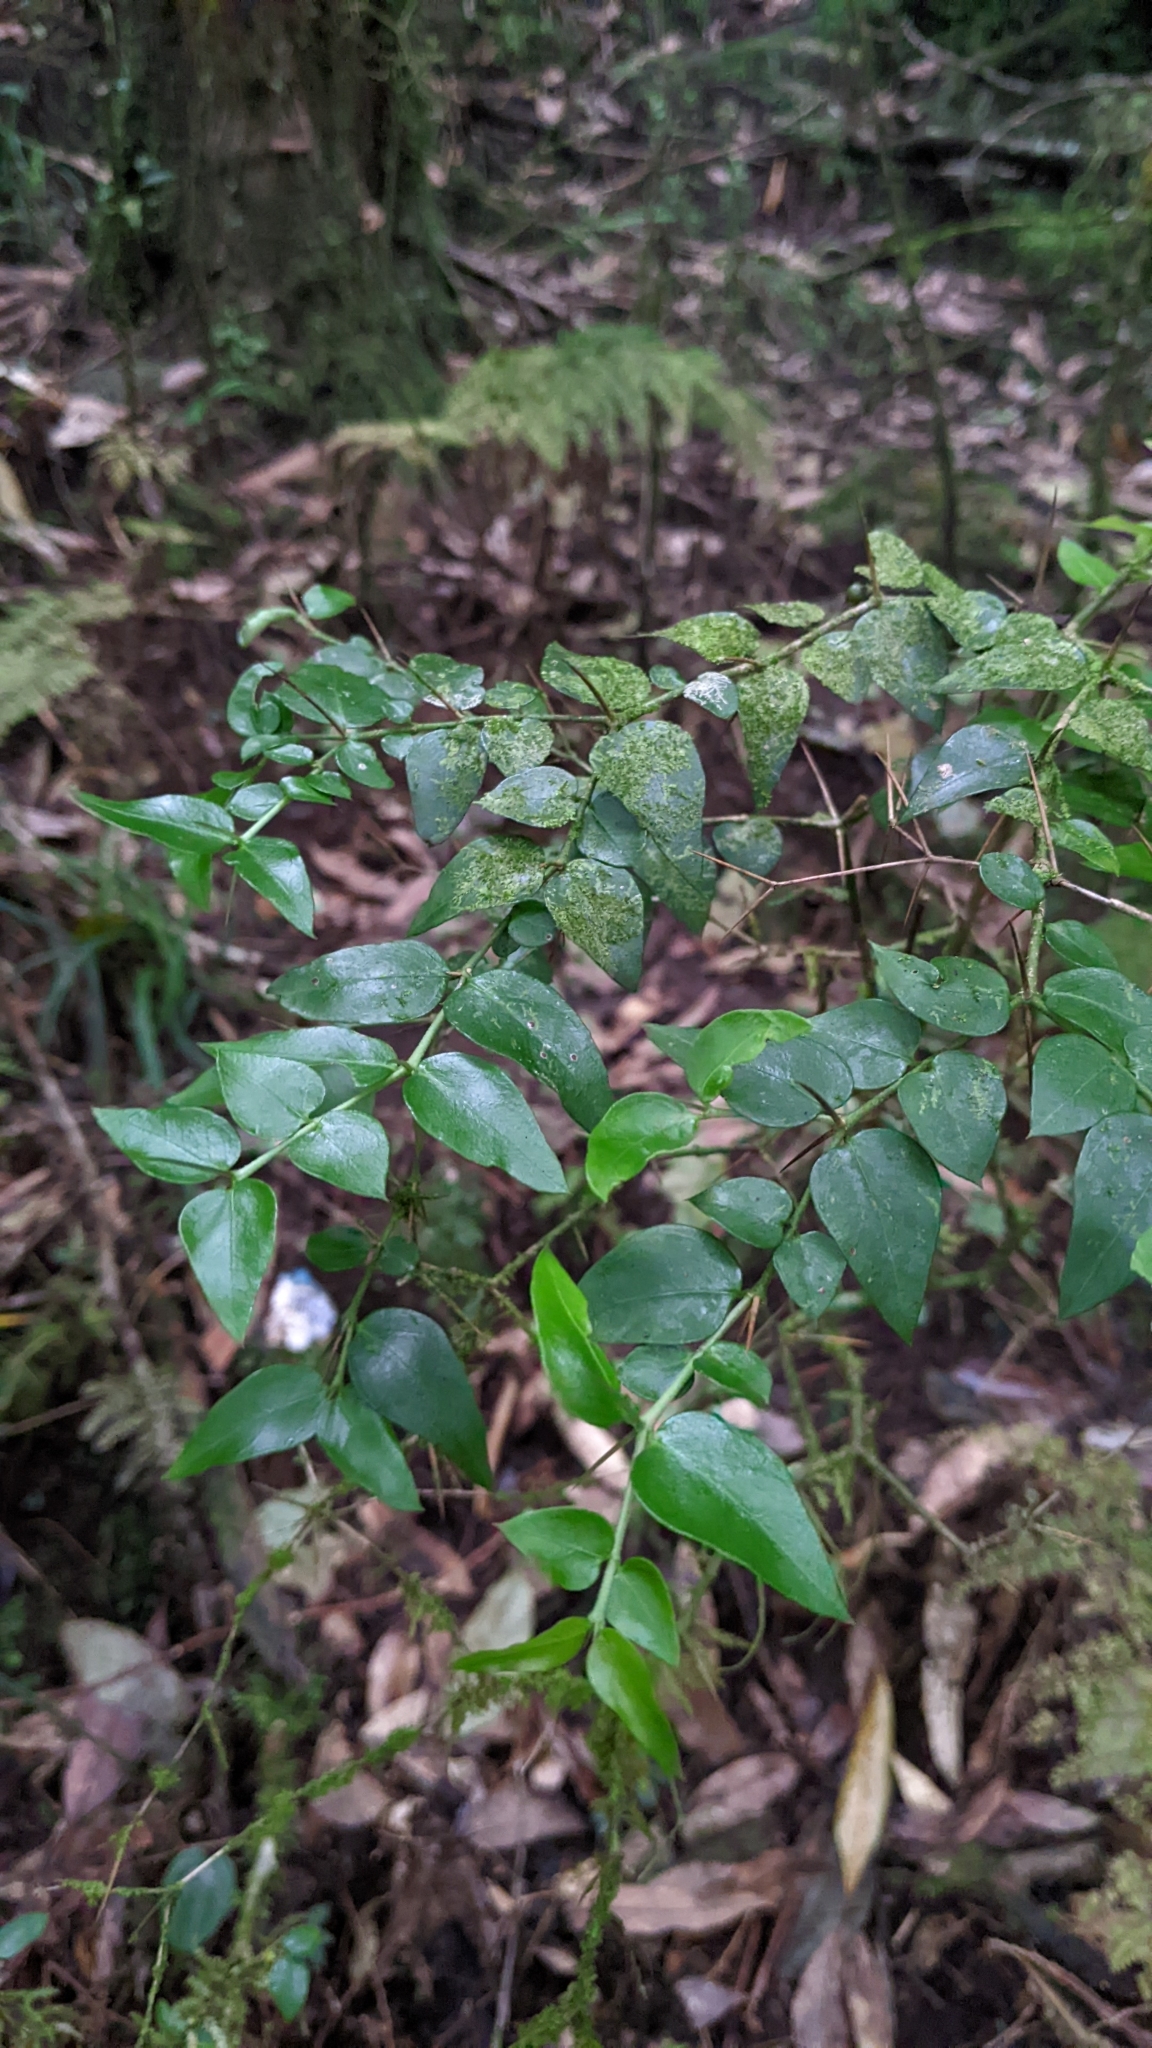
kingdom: Plantae
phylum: Tracheophyta
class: Magnoliopsida
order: Gentianales
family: Rubiaceae
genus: Damnacanthus
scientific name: Damnacanthus indicus
